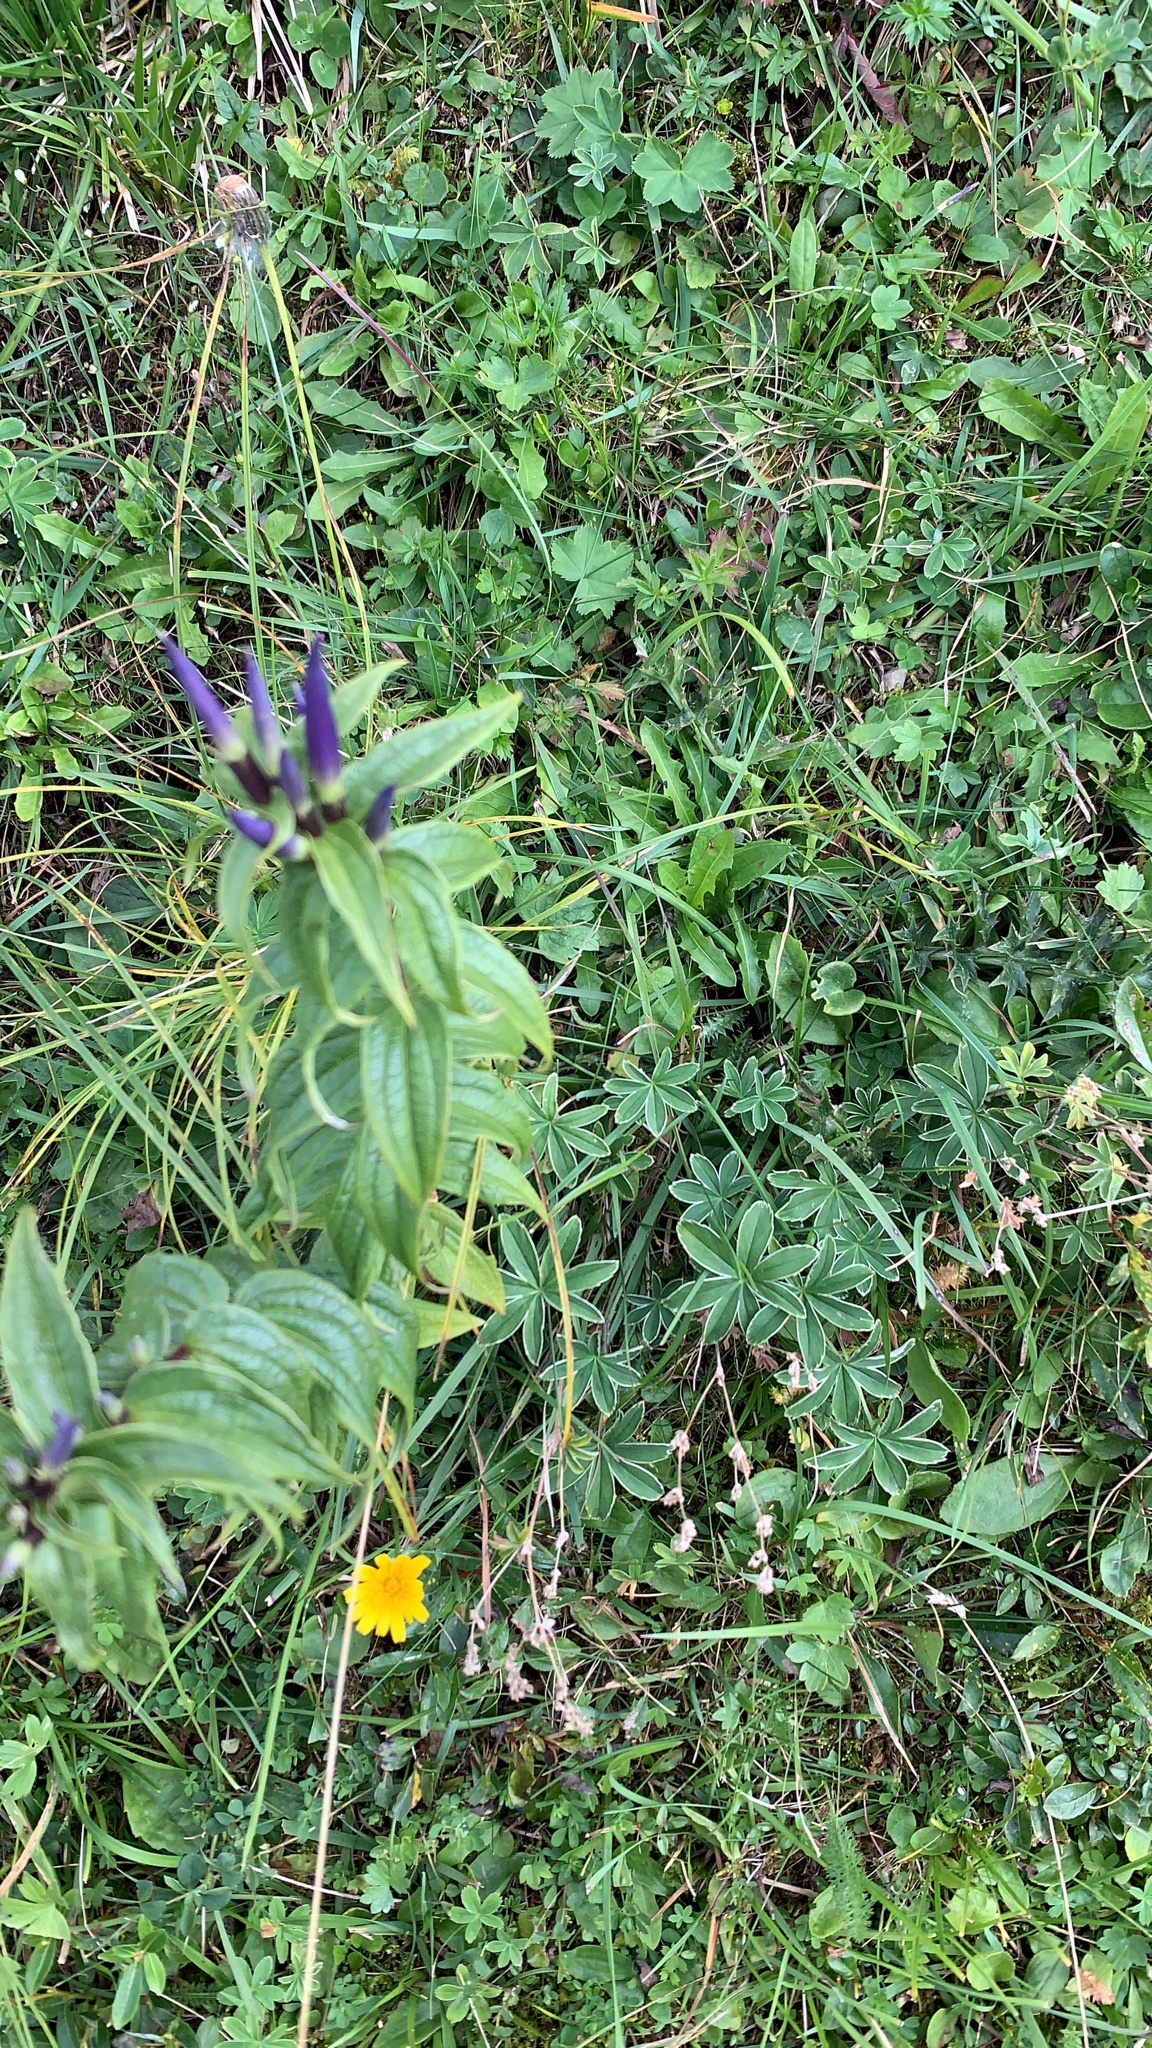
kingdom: Plantae
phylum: Tracheophyta
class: Magnoliopsida
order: Gentianales
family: Gentianaceae
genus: Gentiana
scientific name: Gentiana asclepiadea
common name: Willow gentian
